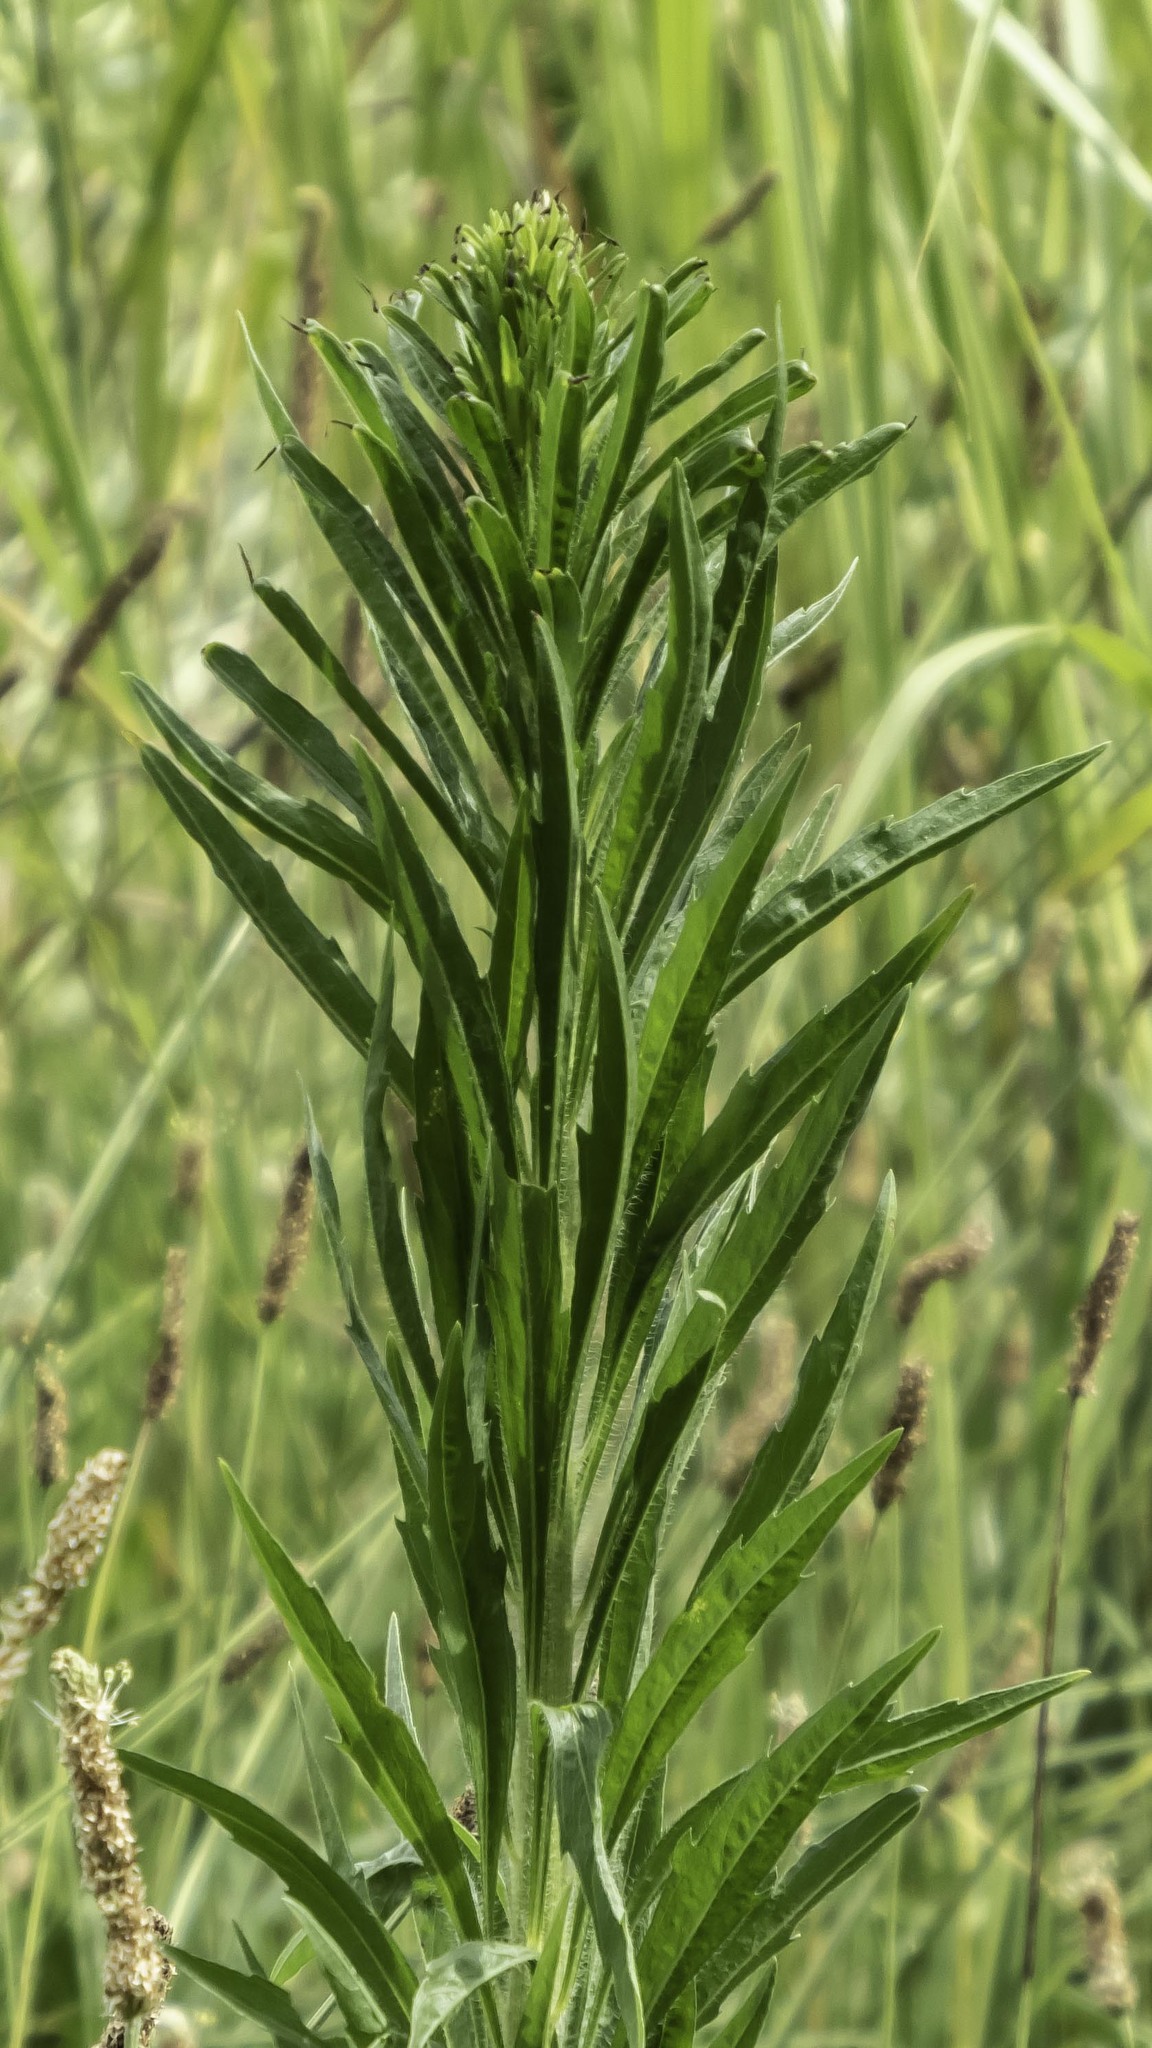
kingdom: Plantae
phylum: Tracheophyta
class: Magnoliopsida
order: Asterales
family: Asteraceae
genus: Erigeron
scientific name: Erigeron canadensis
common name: Canadian fleabane
